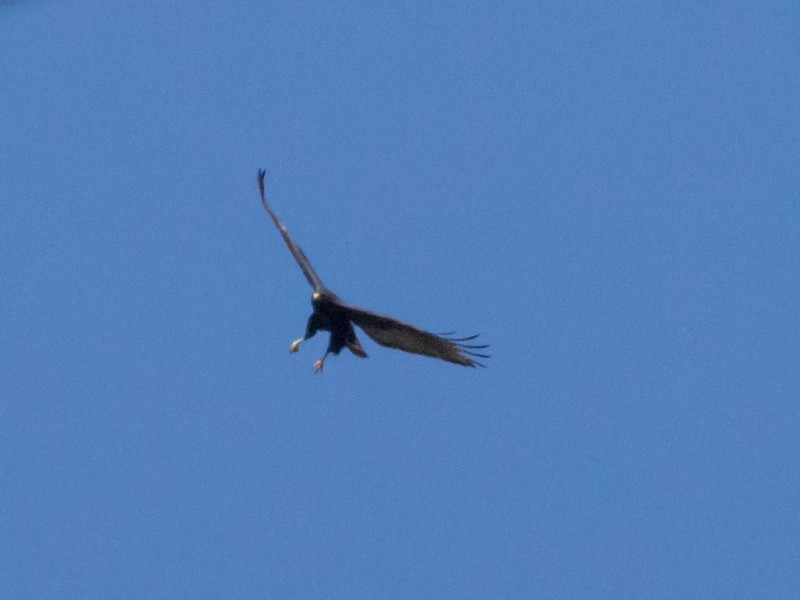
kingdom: Animalia
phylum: Chordata
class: Aves
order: Accipitriformes
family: Accipitridae
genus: Buteo
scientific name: Buteo albonotatus
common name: Zone-tailed hawk
